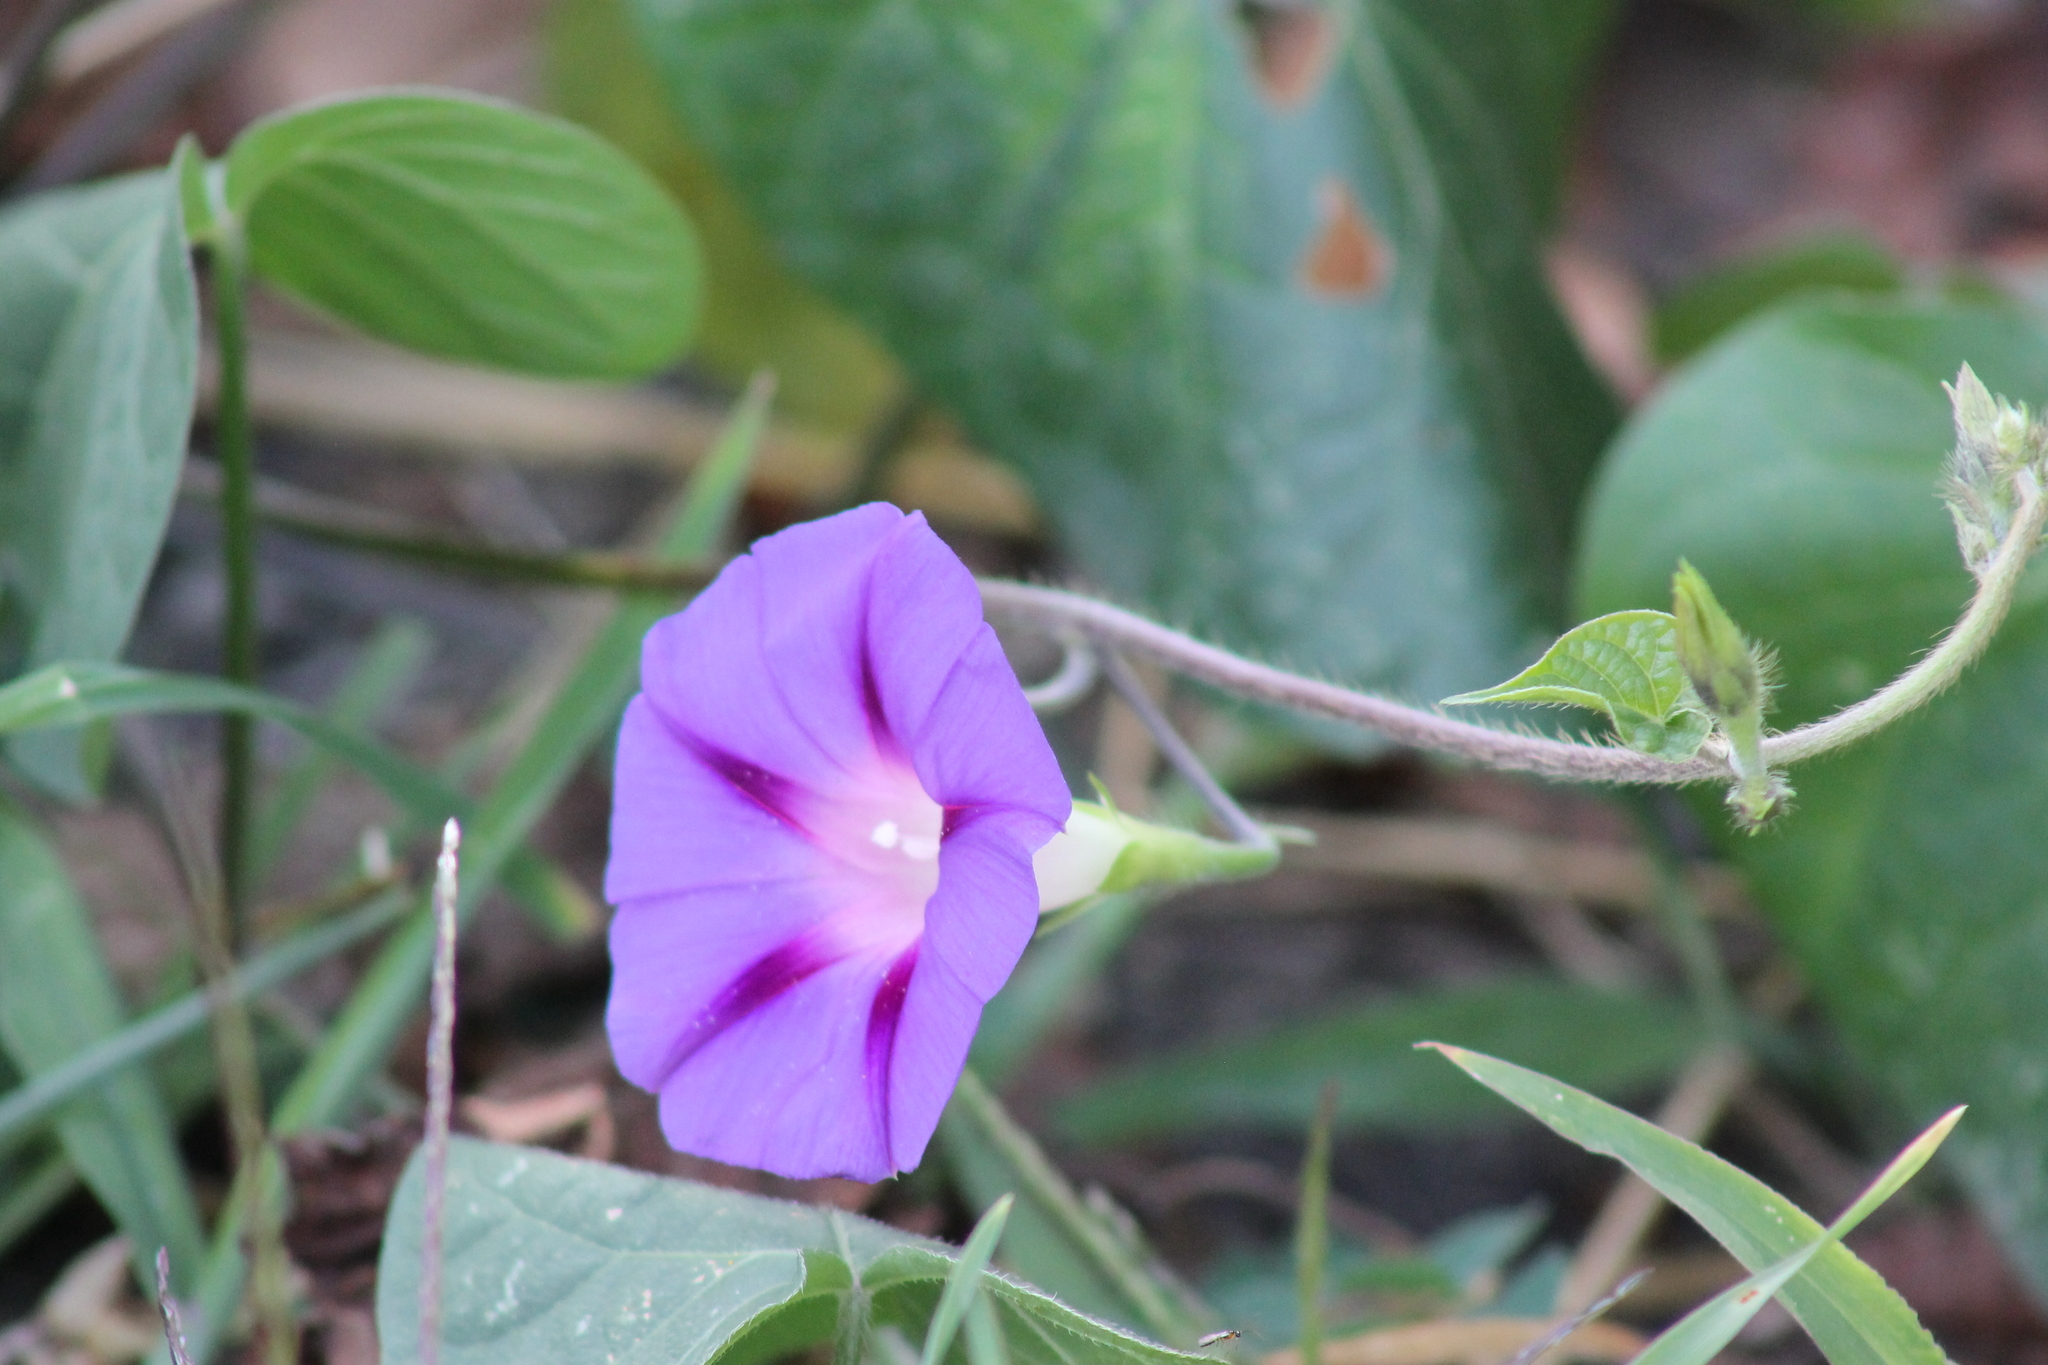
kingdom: Plantae
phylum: Tracheophyta
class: Magnoliopsida
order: Solanales
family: Convolvulaceae
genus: Ipomoea
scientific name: Ipomoea purpurea
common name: Common morning-glory
